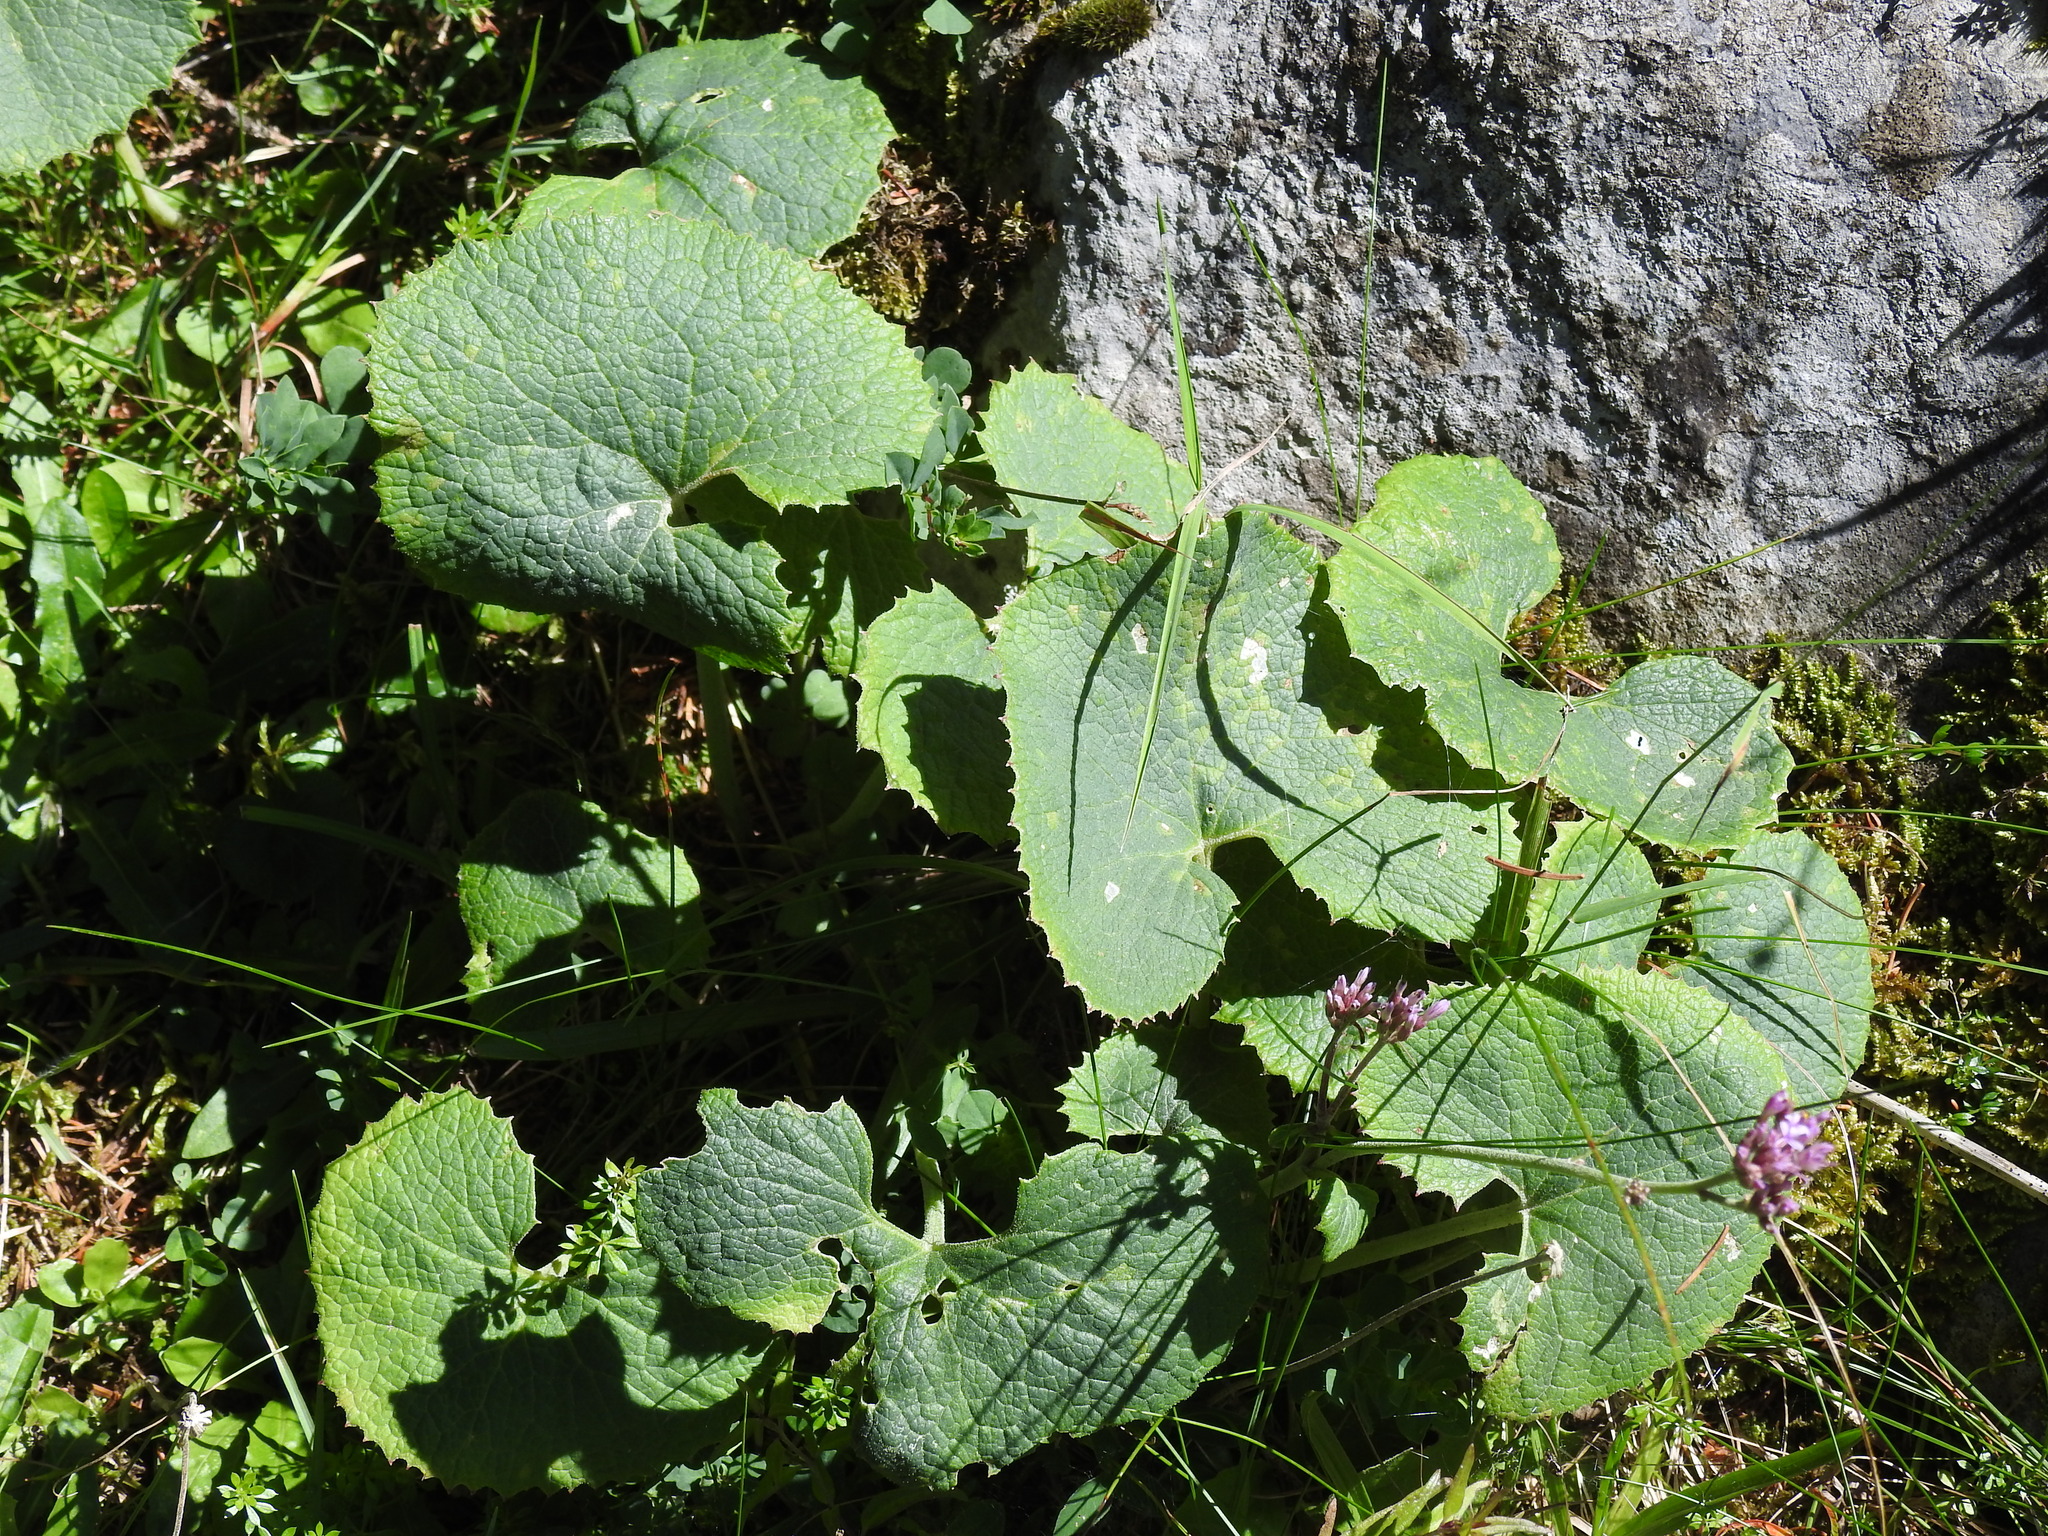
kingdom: Plantae
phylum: Tracheophyta
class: Magnoliopsida
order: Asterales
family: Asteraceae
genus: Adenostyles
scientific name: Adenostyles alpina
